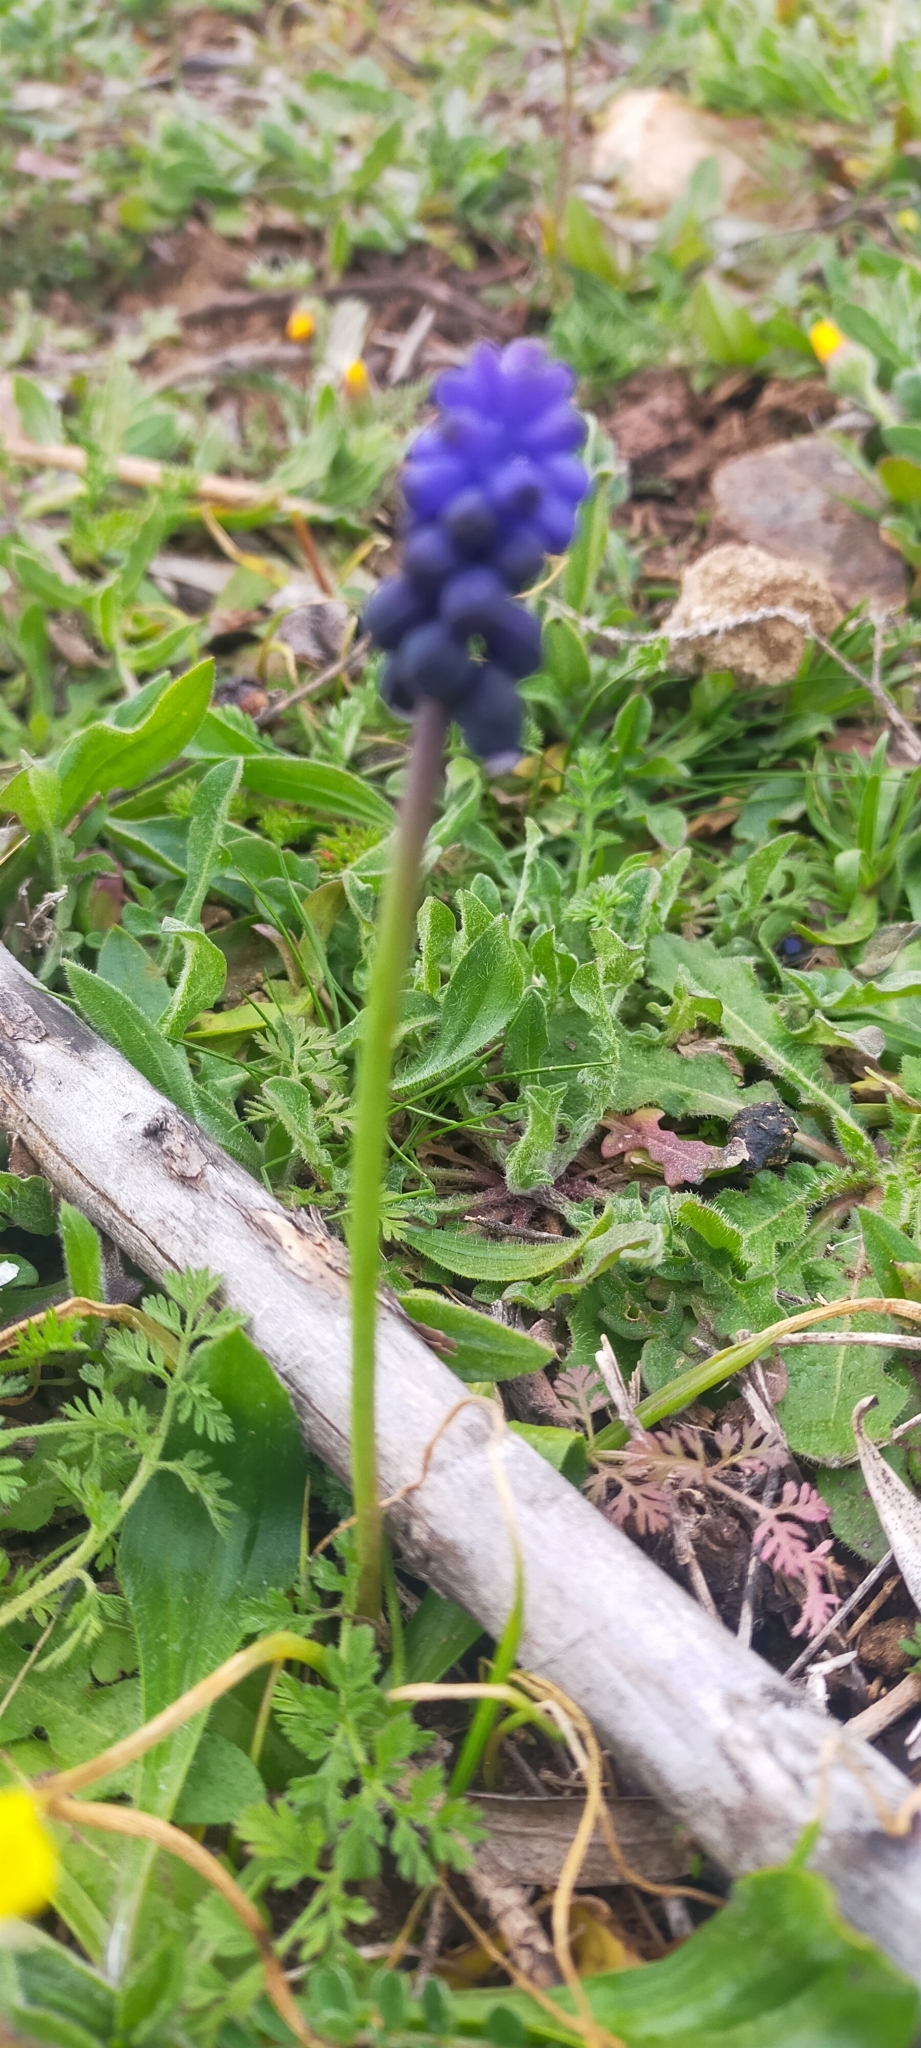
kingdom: Plantae
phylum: Tracheophyta
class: Liliopsida
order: Asparagales
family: Asparagaceae
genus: Muscari
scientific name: Muscari neglectum
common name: Grape-hyacinth
